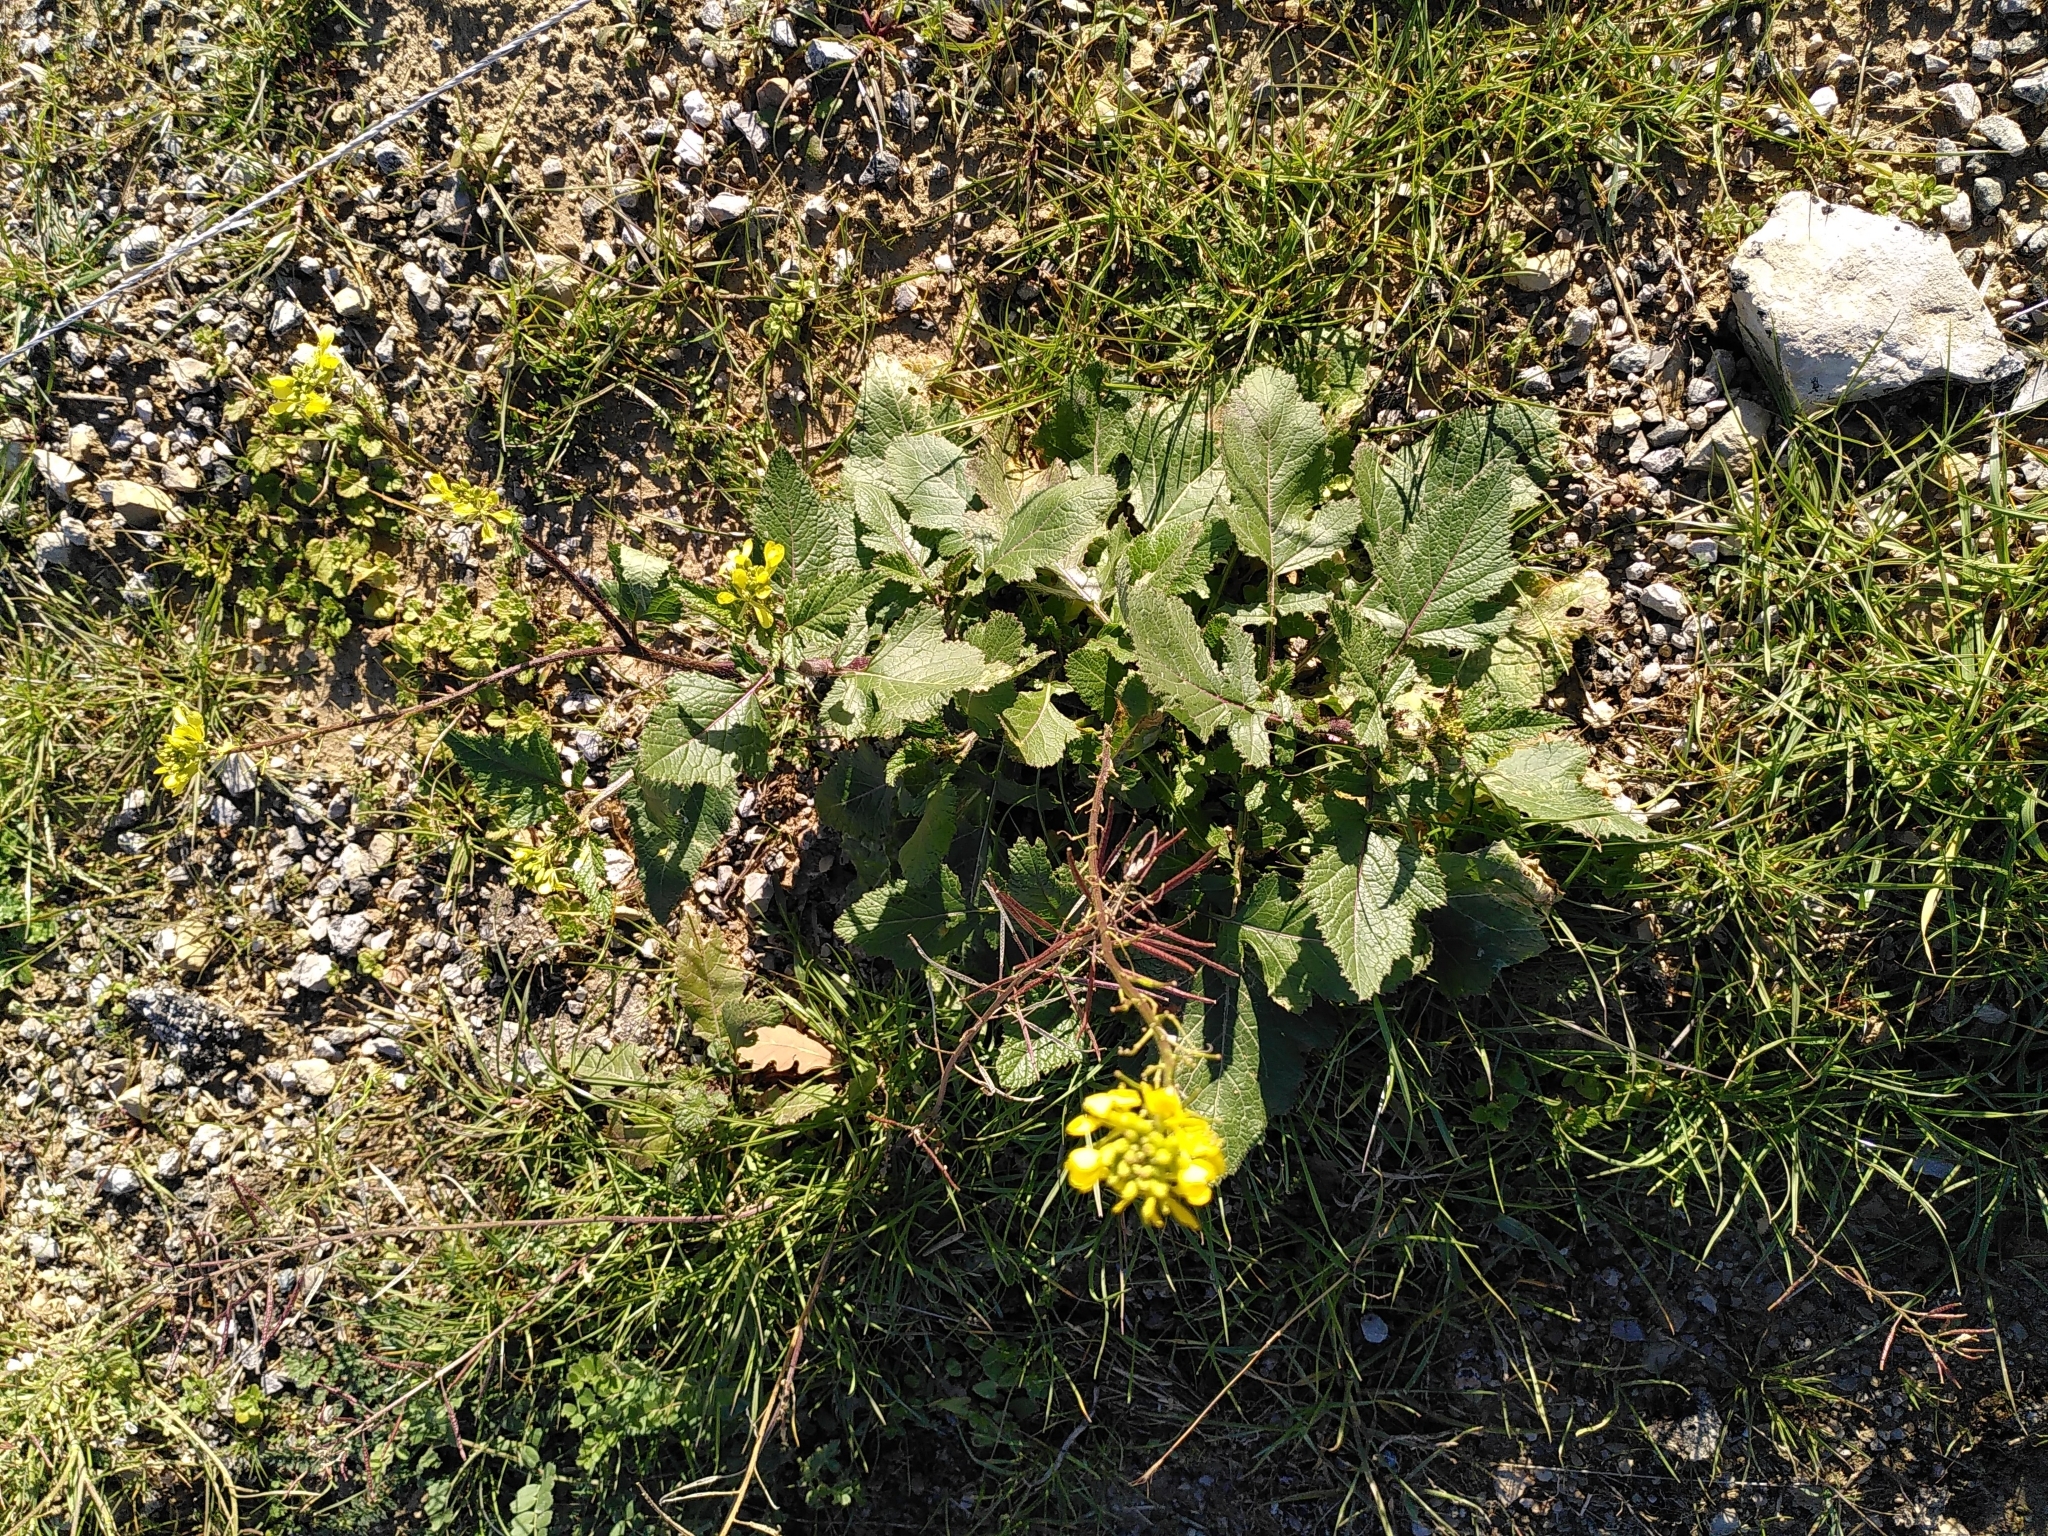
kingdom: Plantae
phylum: Tracheophyta
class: Magnoliopsida
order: Brassicales
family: Brassicaceae
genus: Sinapis
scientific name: Sinapis arvensis
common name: Charlock
